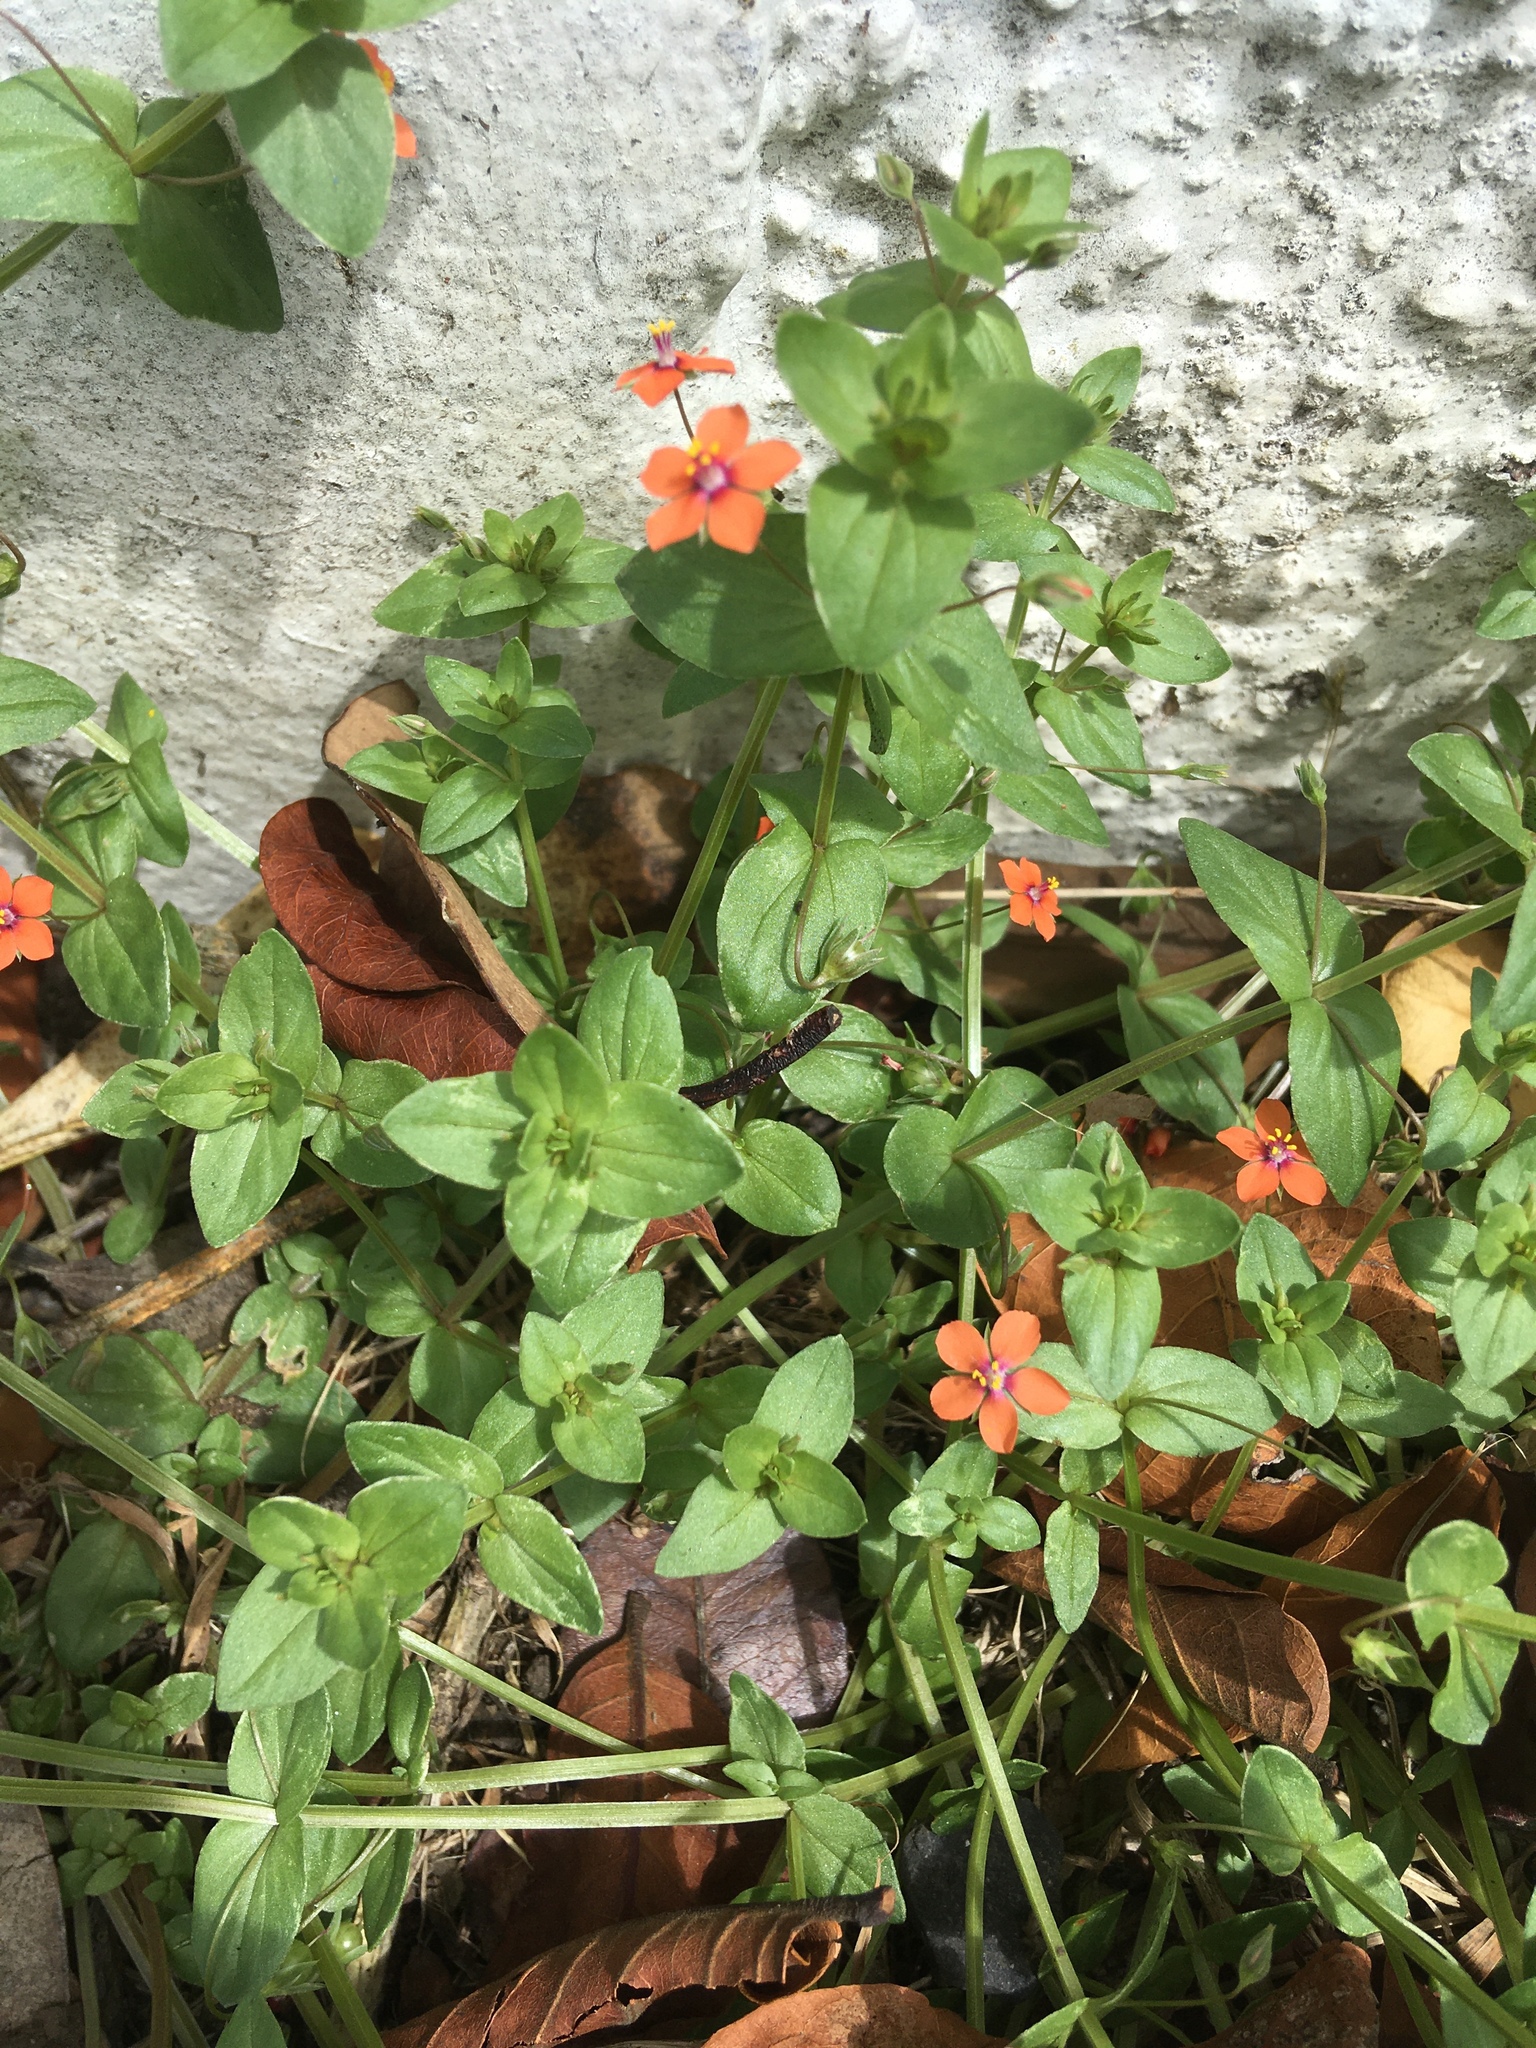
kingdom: Plantae
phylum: Tracheophyta
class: Magnoliopsida
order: Ericales
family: Primulaceae
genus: Lysimachia
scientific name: Lysimachia arvensis
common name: Scarlet pimpernel
